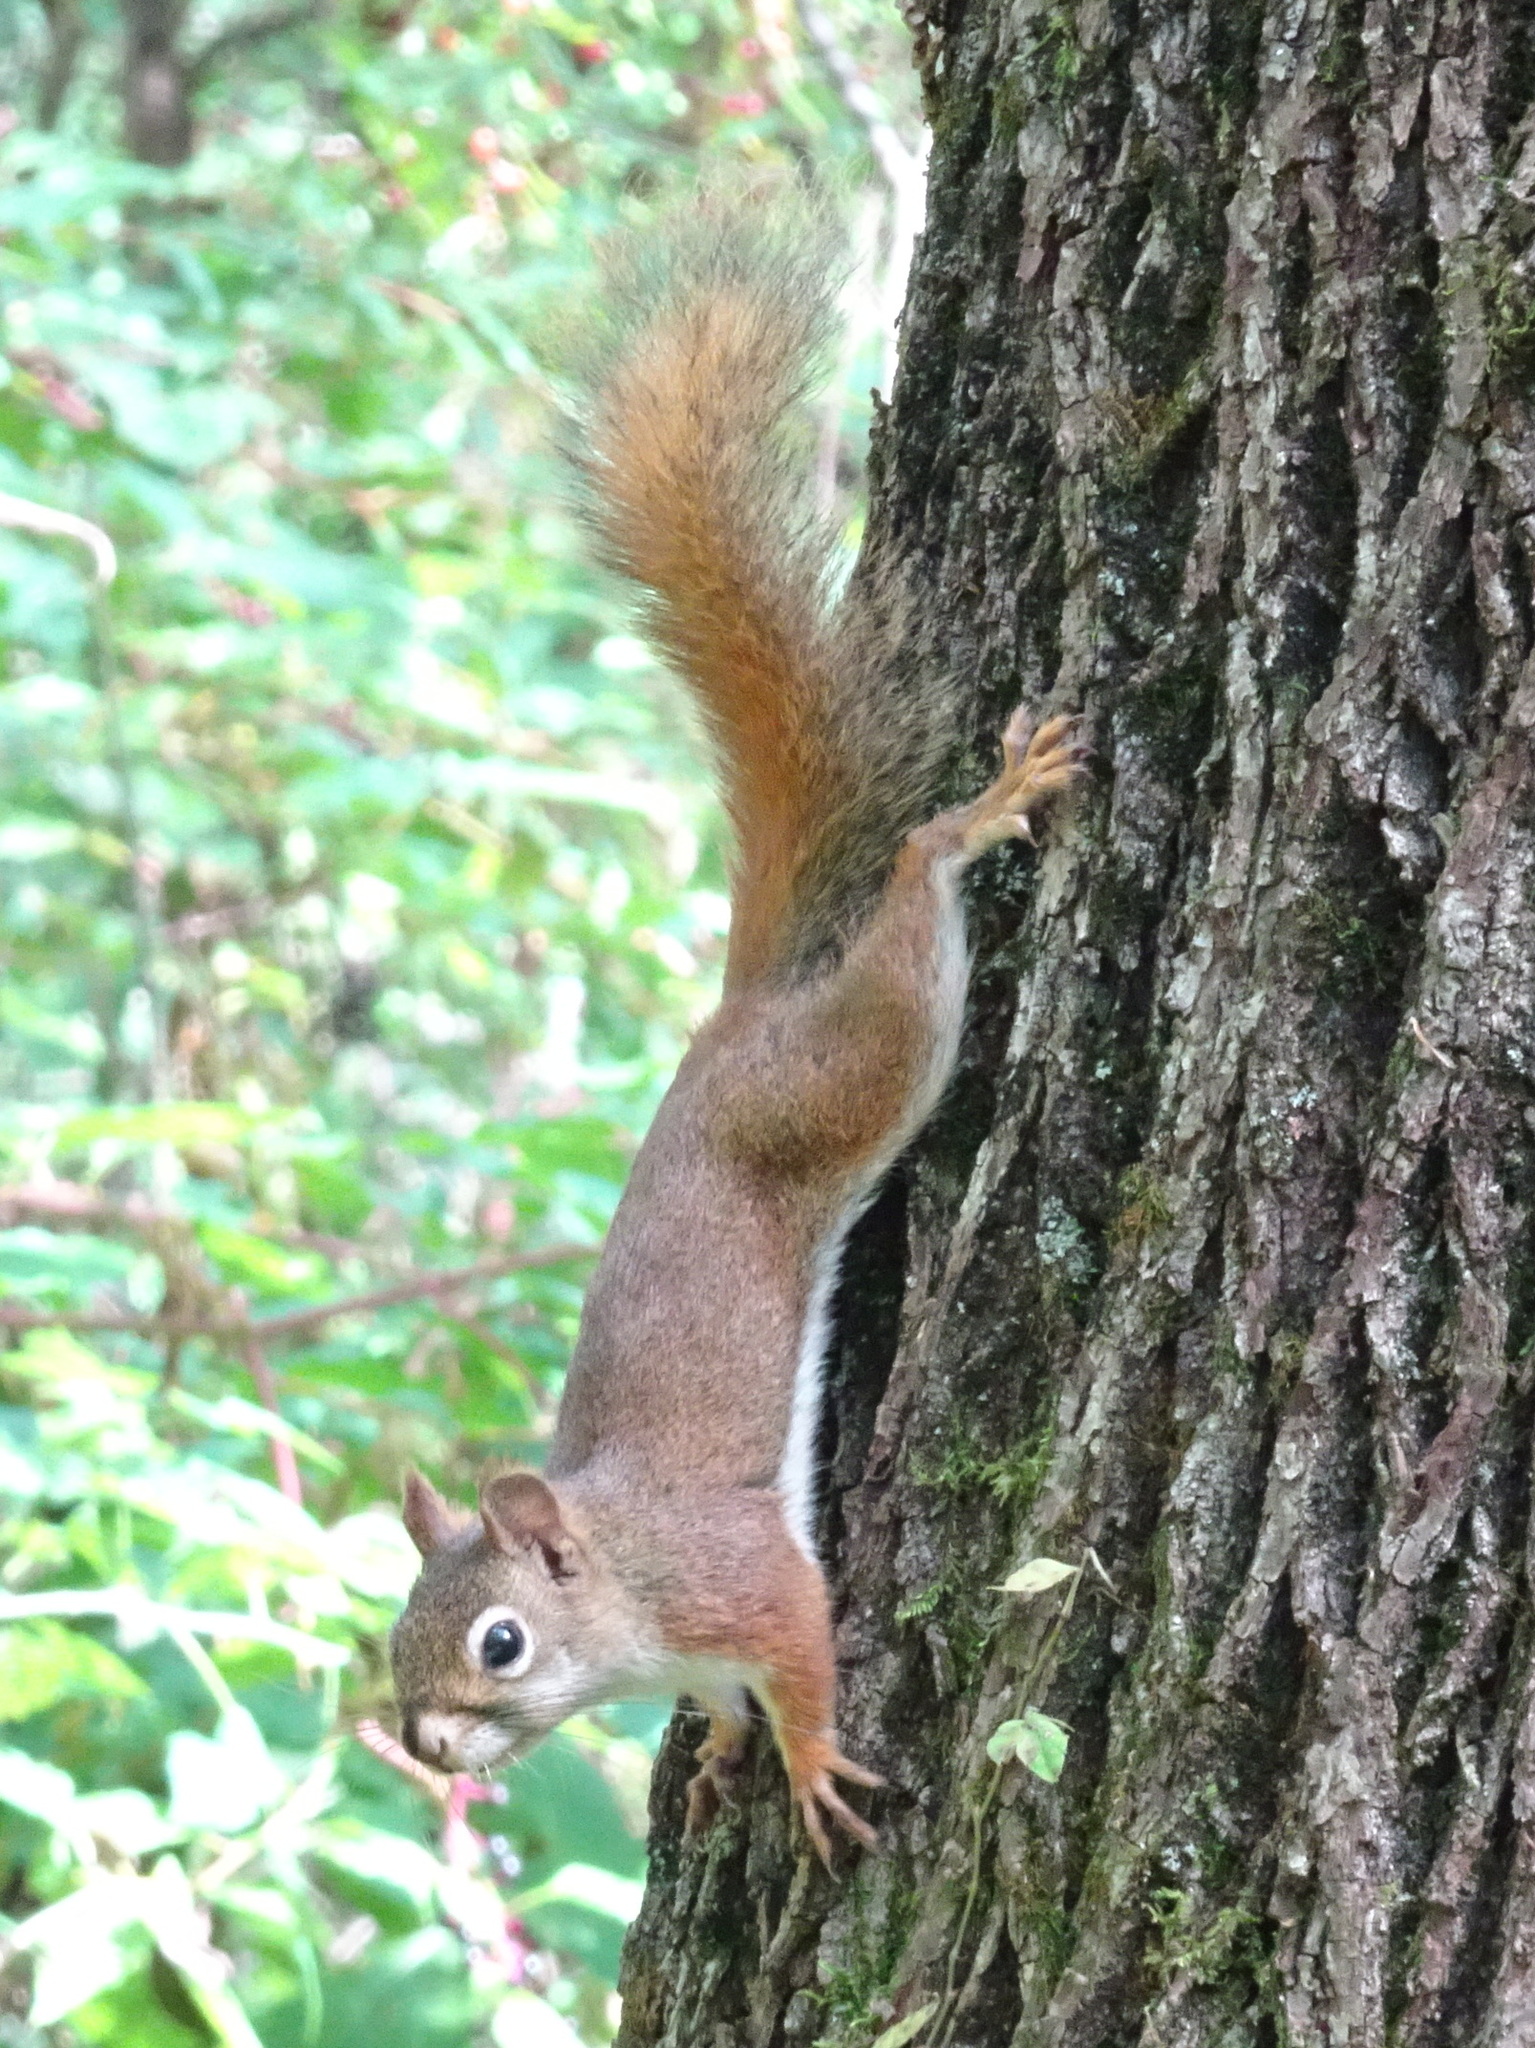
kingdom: Animalia
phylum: Chordata
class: Mammalia
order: Rodentia
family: Sciuridae
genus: Tamiasciurus
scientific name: Tamiasciurus hudsonicus
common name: Red squirrel
